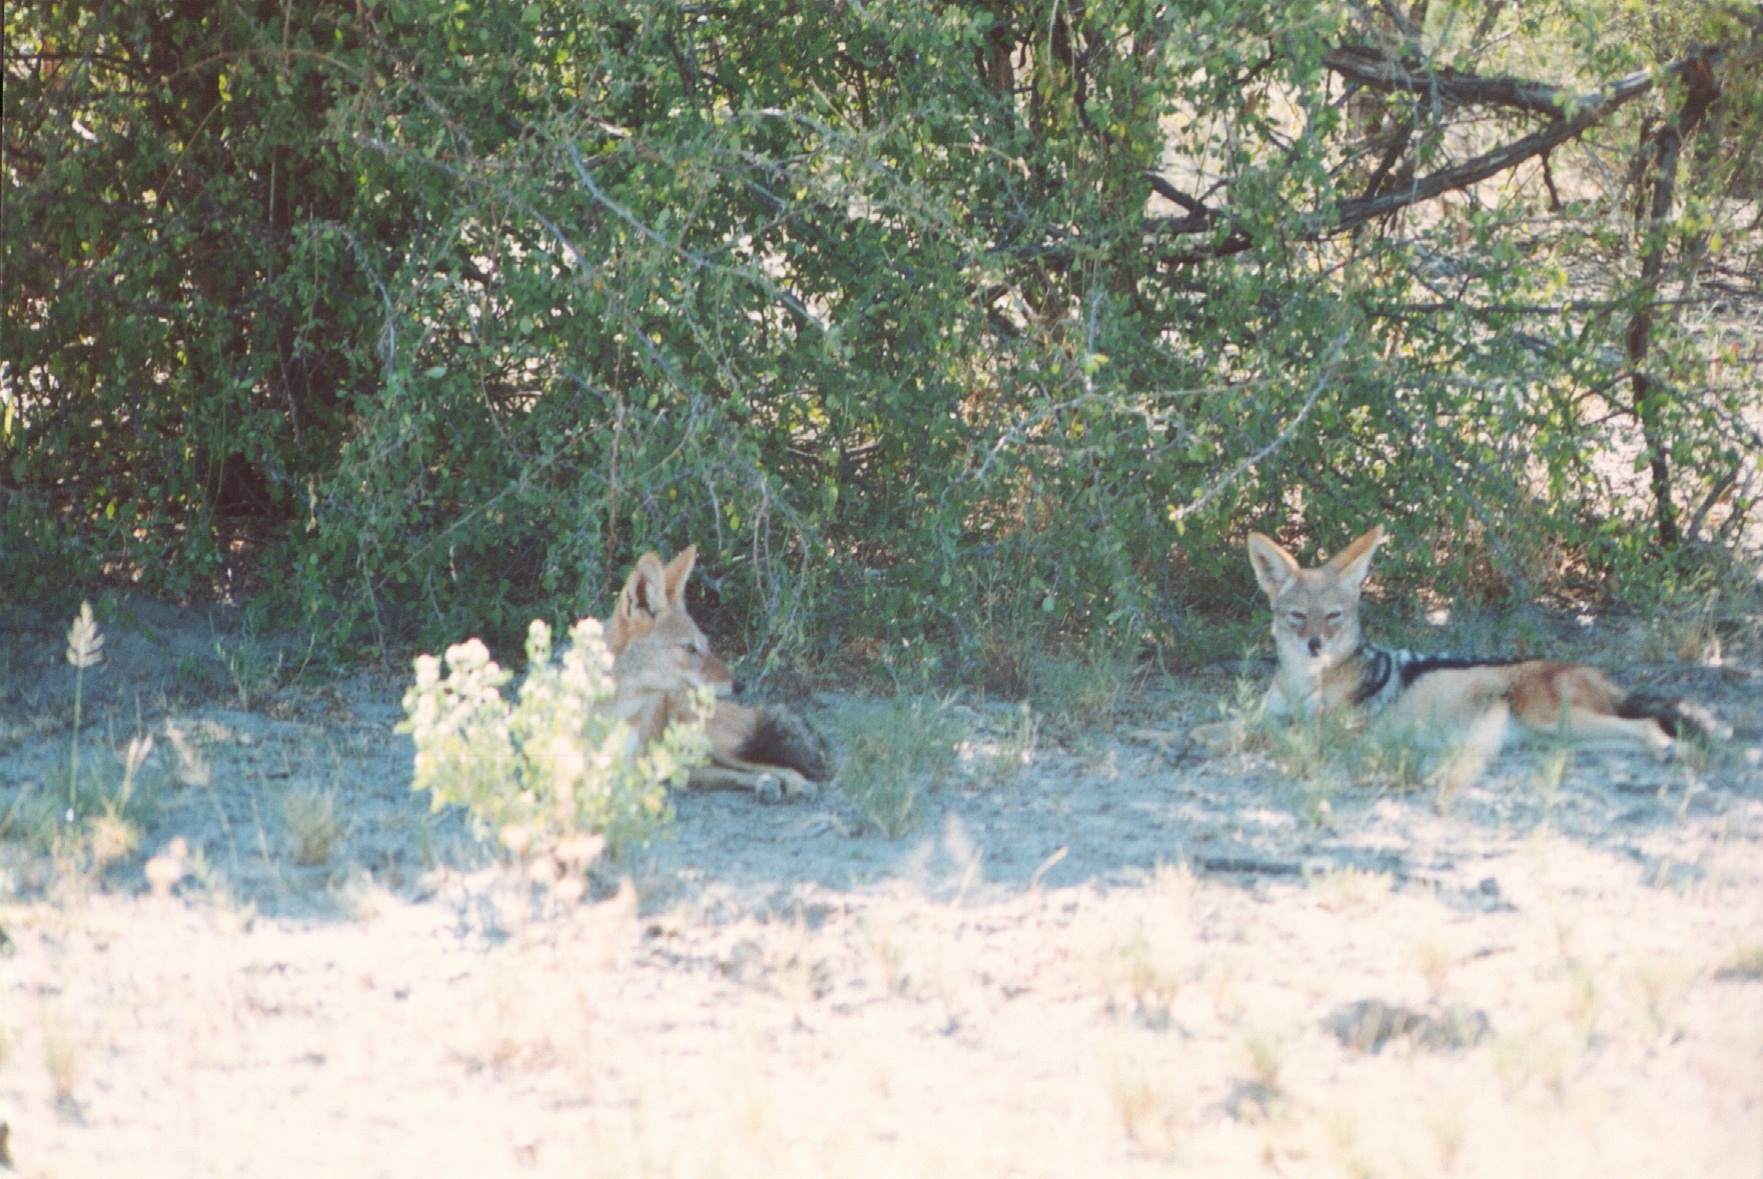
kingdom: Animalia
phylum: Chordata
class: Mammalia
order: Carnivora
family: Canidae
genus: Lupulella
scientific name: Lupulella
